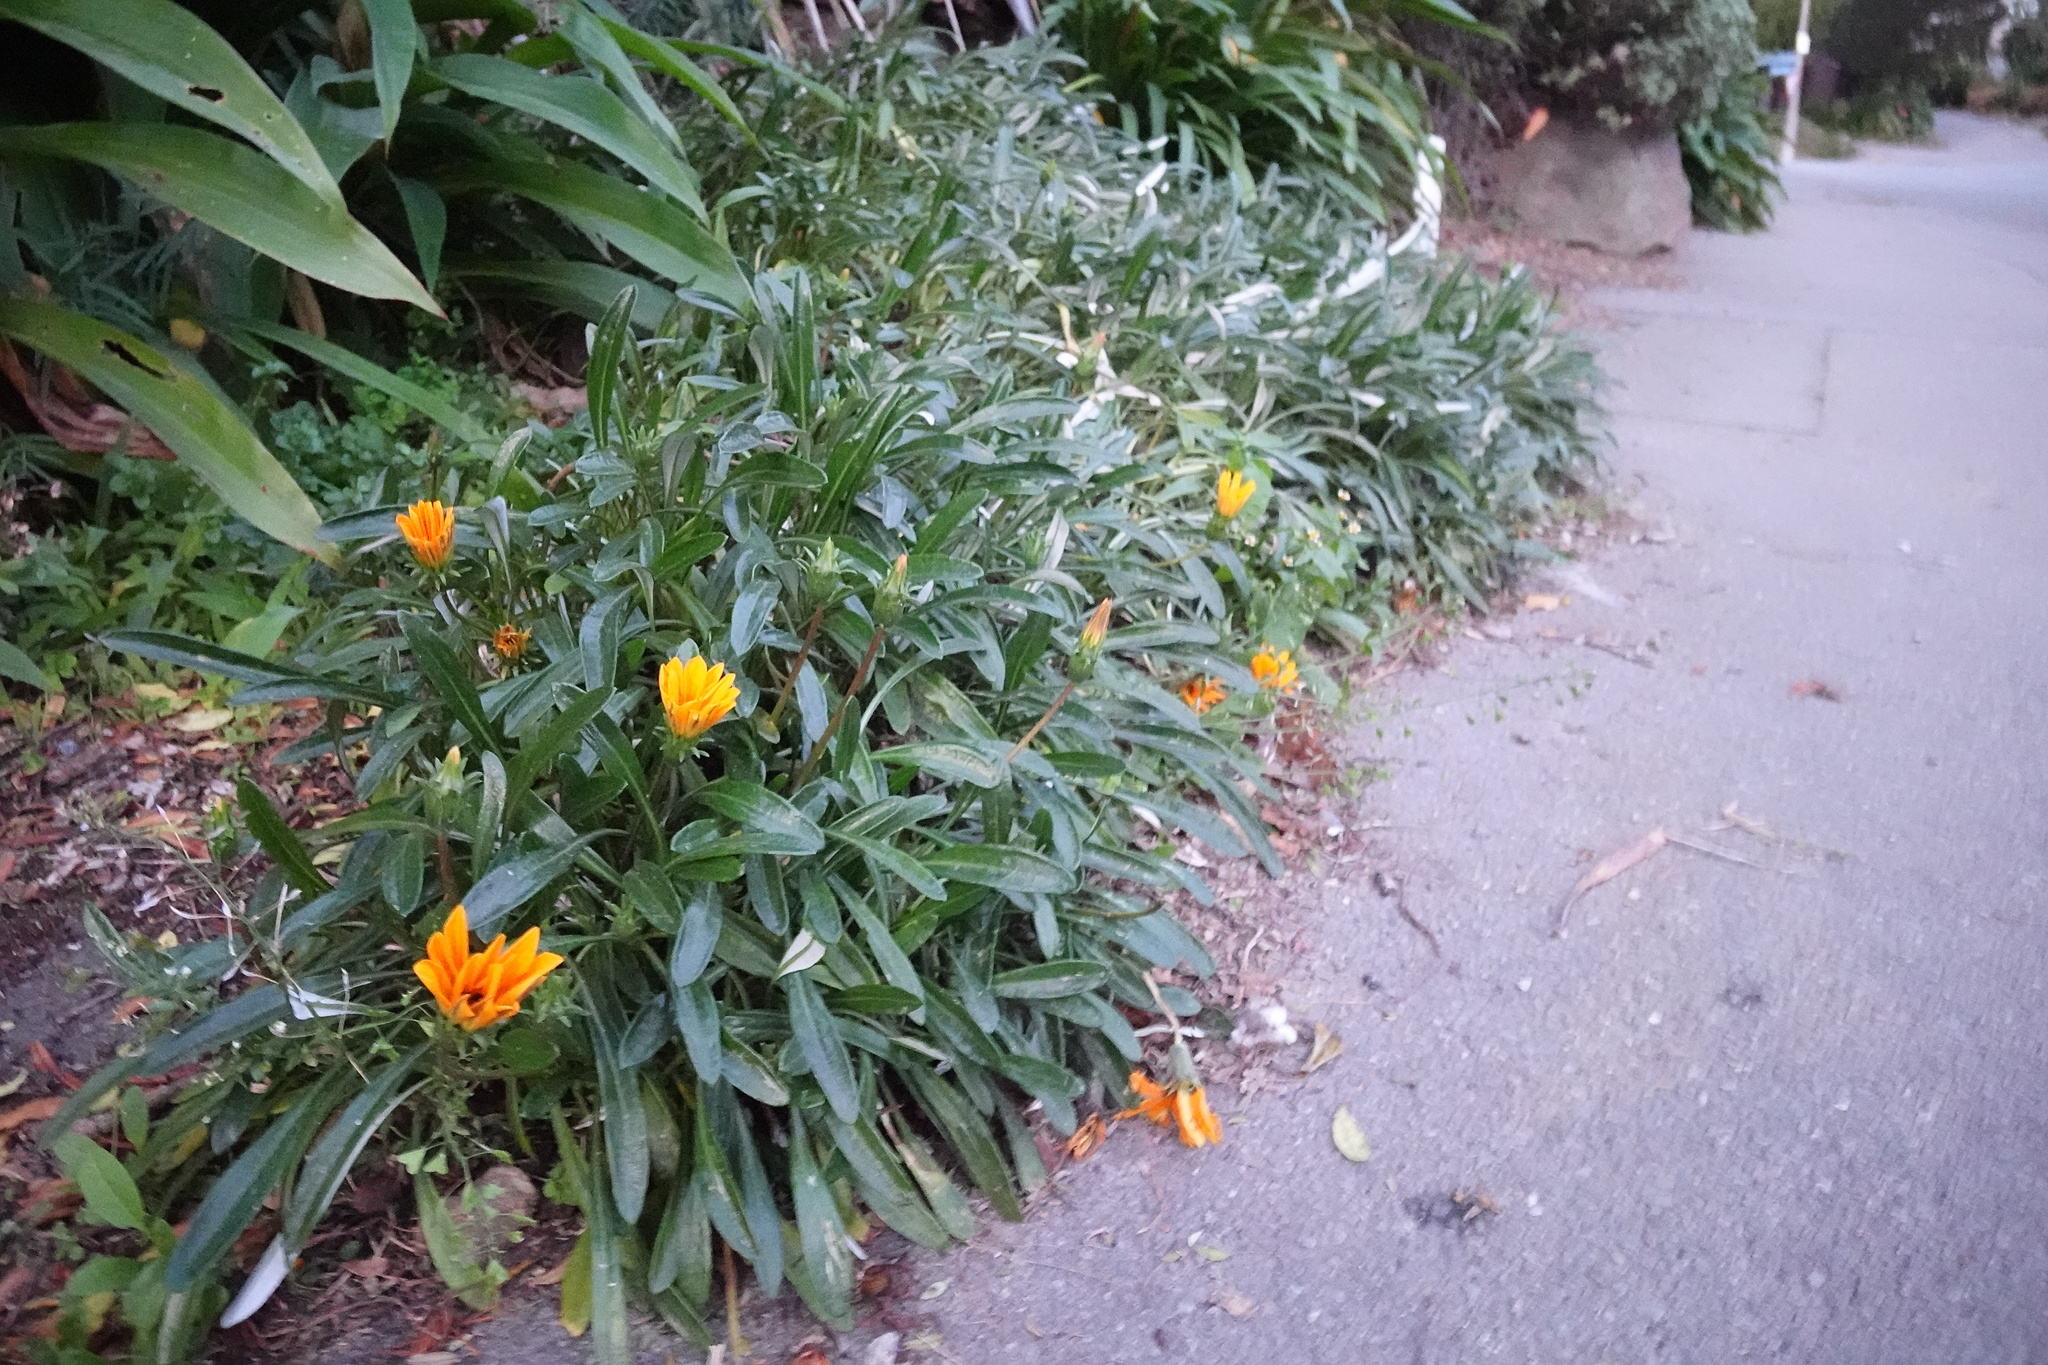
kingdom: Plantae
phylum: Tracheophyta
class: Magnoliopsida
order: Asterales
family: Asteraceae
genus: Gazania
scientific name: Gazania splendens
